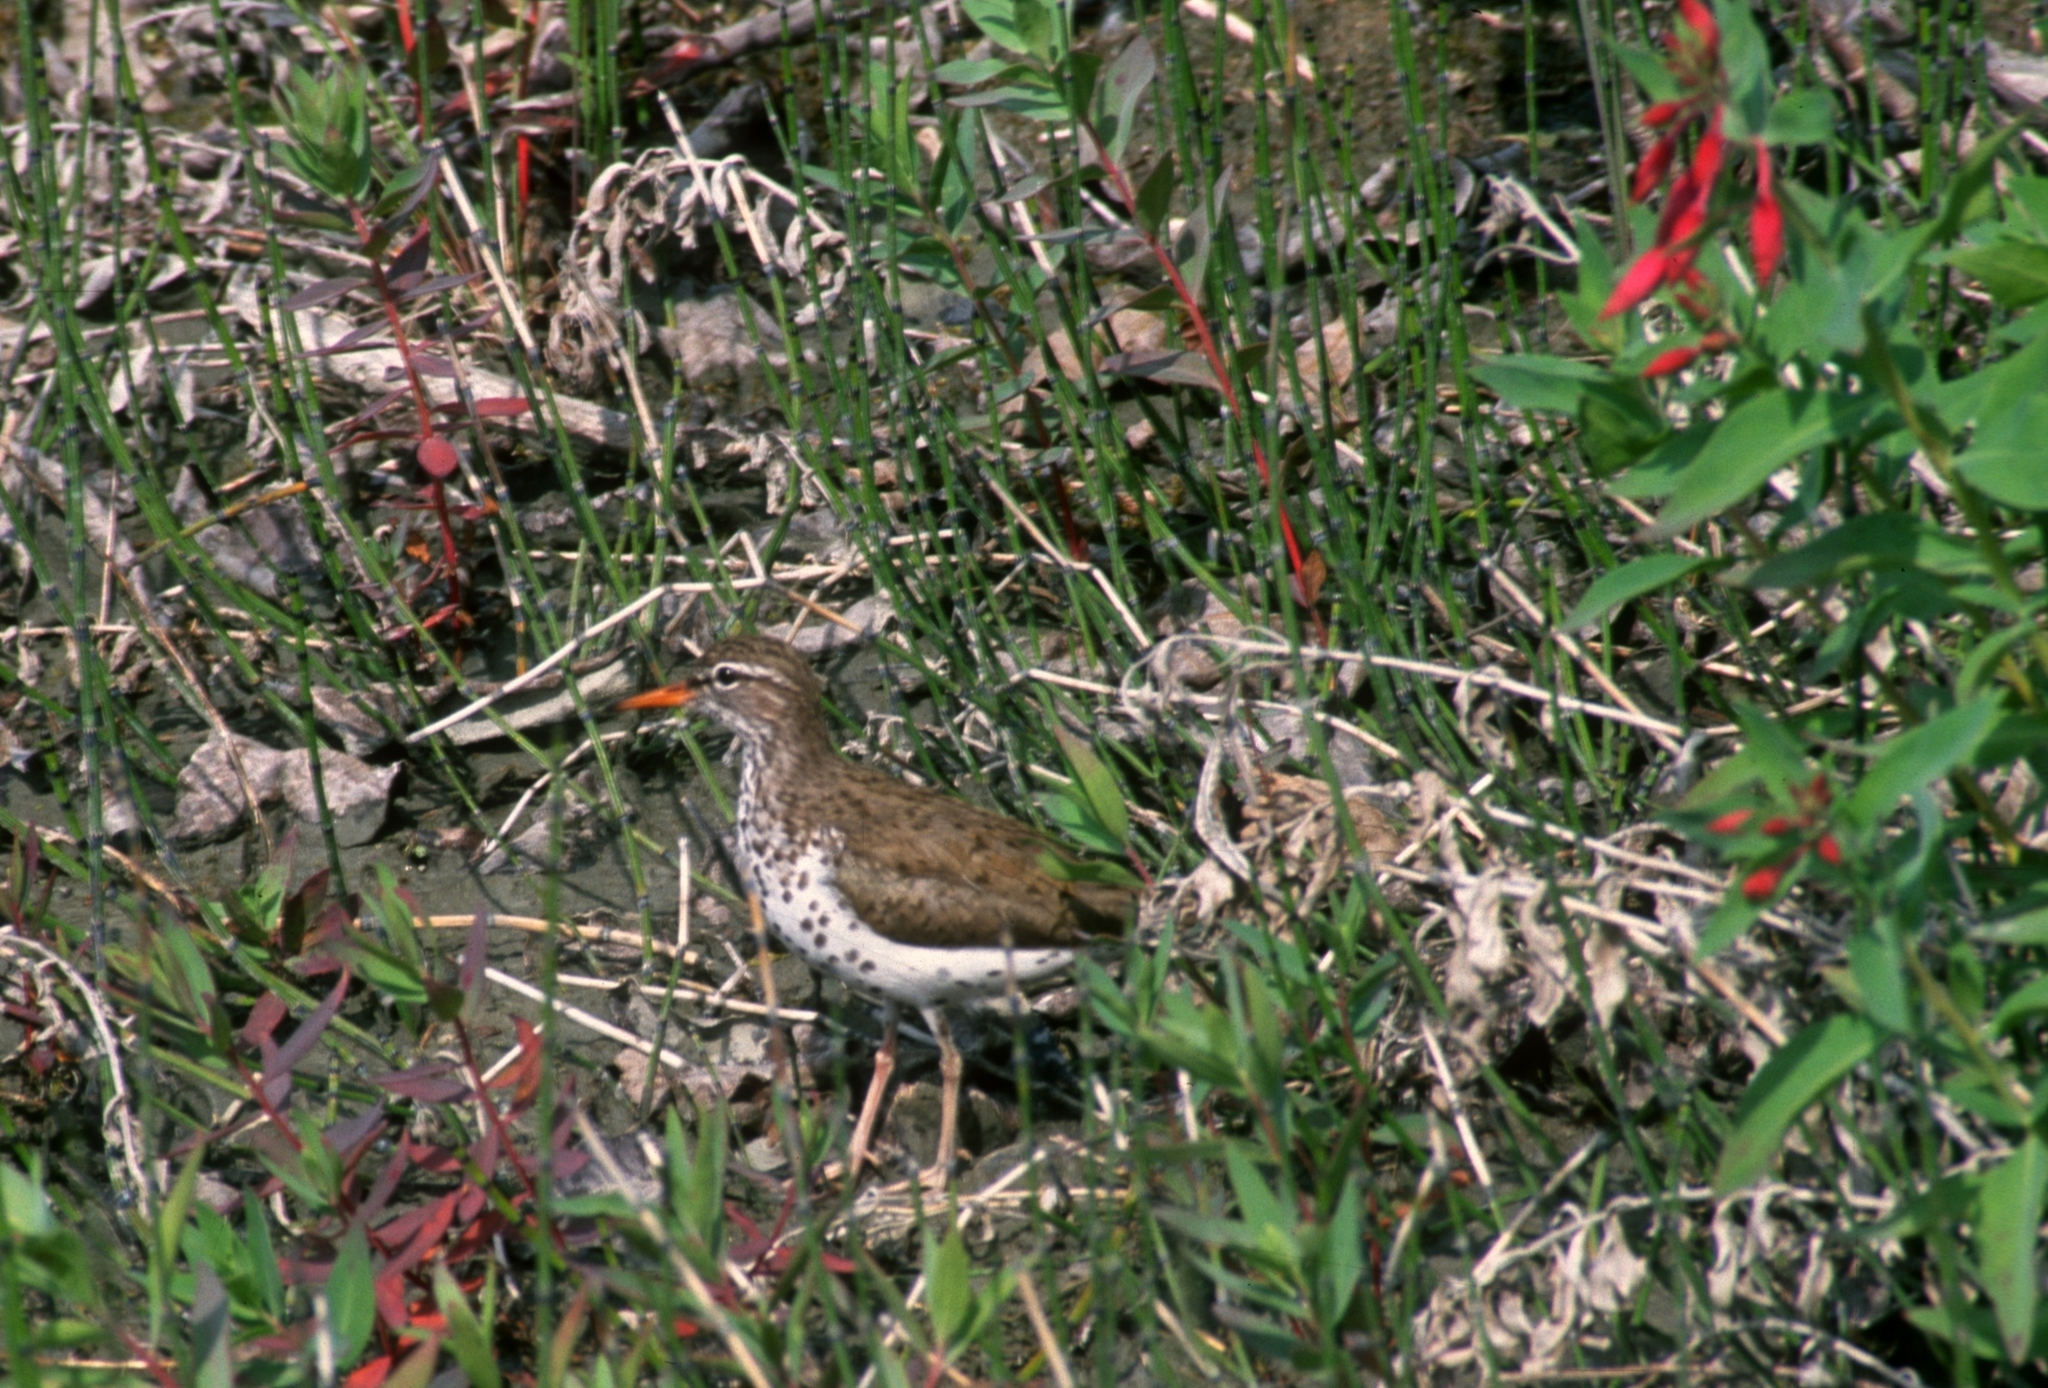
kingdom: Animalia
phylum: Chordata
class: Aves
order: Charadriiformes
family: Scolopacidae
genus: Actitis
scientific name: Actitis macularius
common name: Spotted sandpiper
